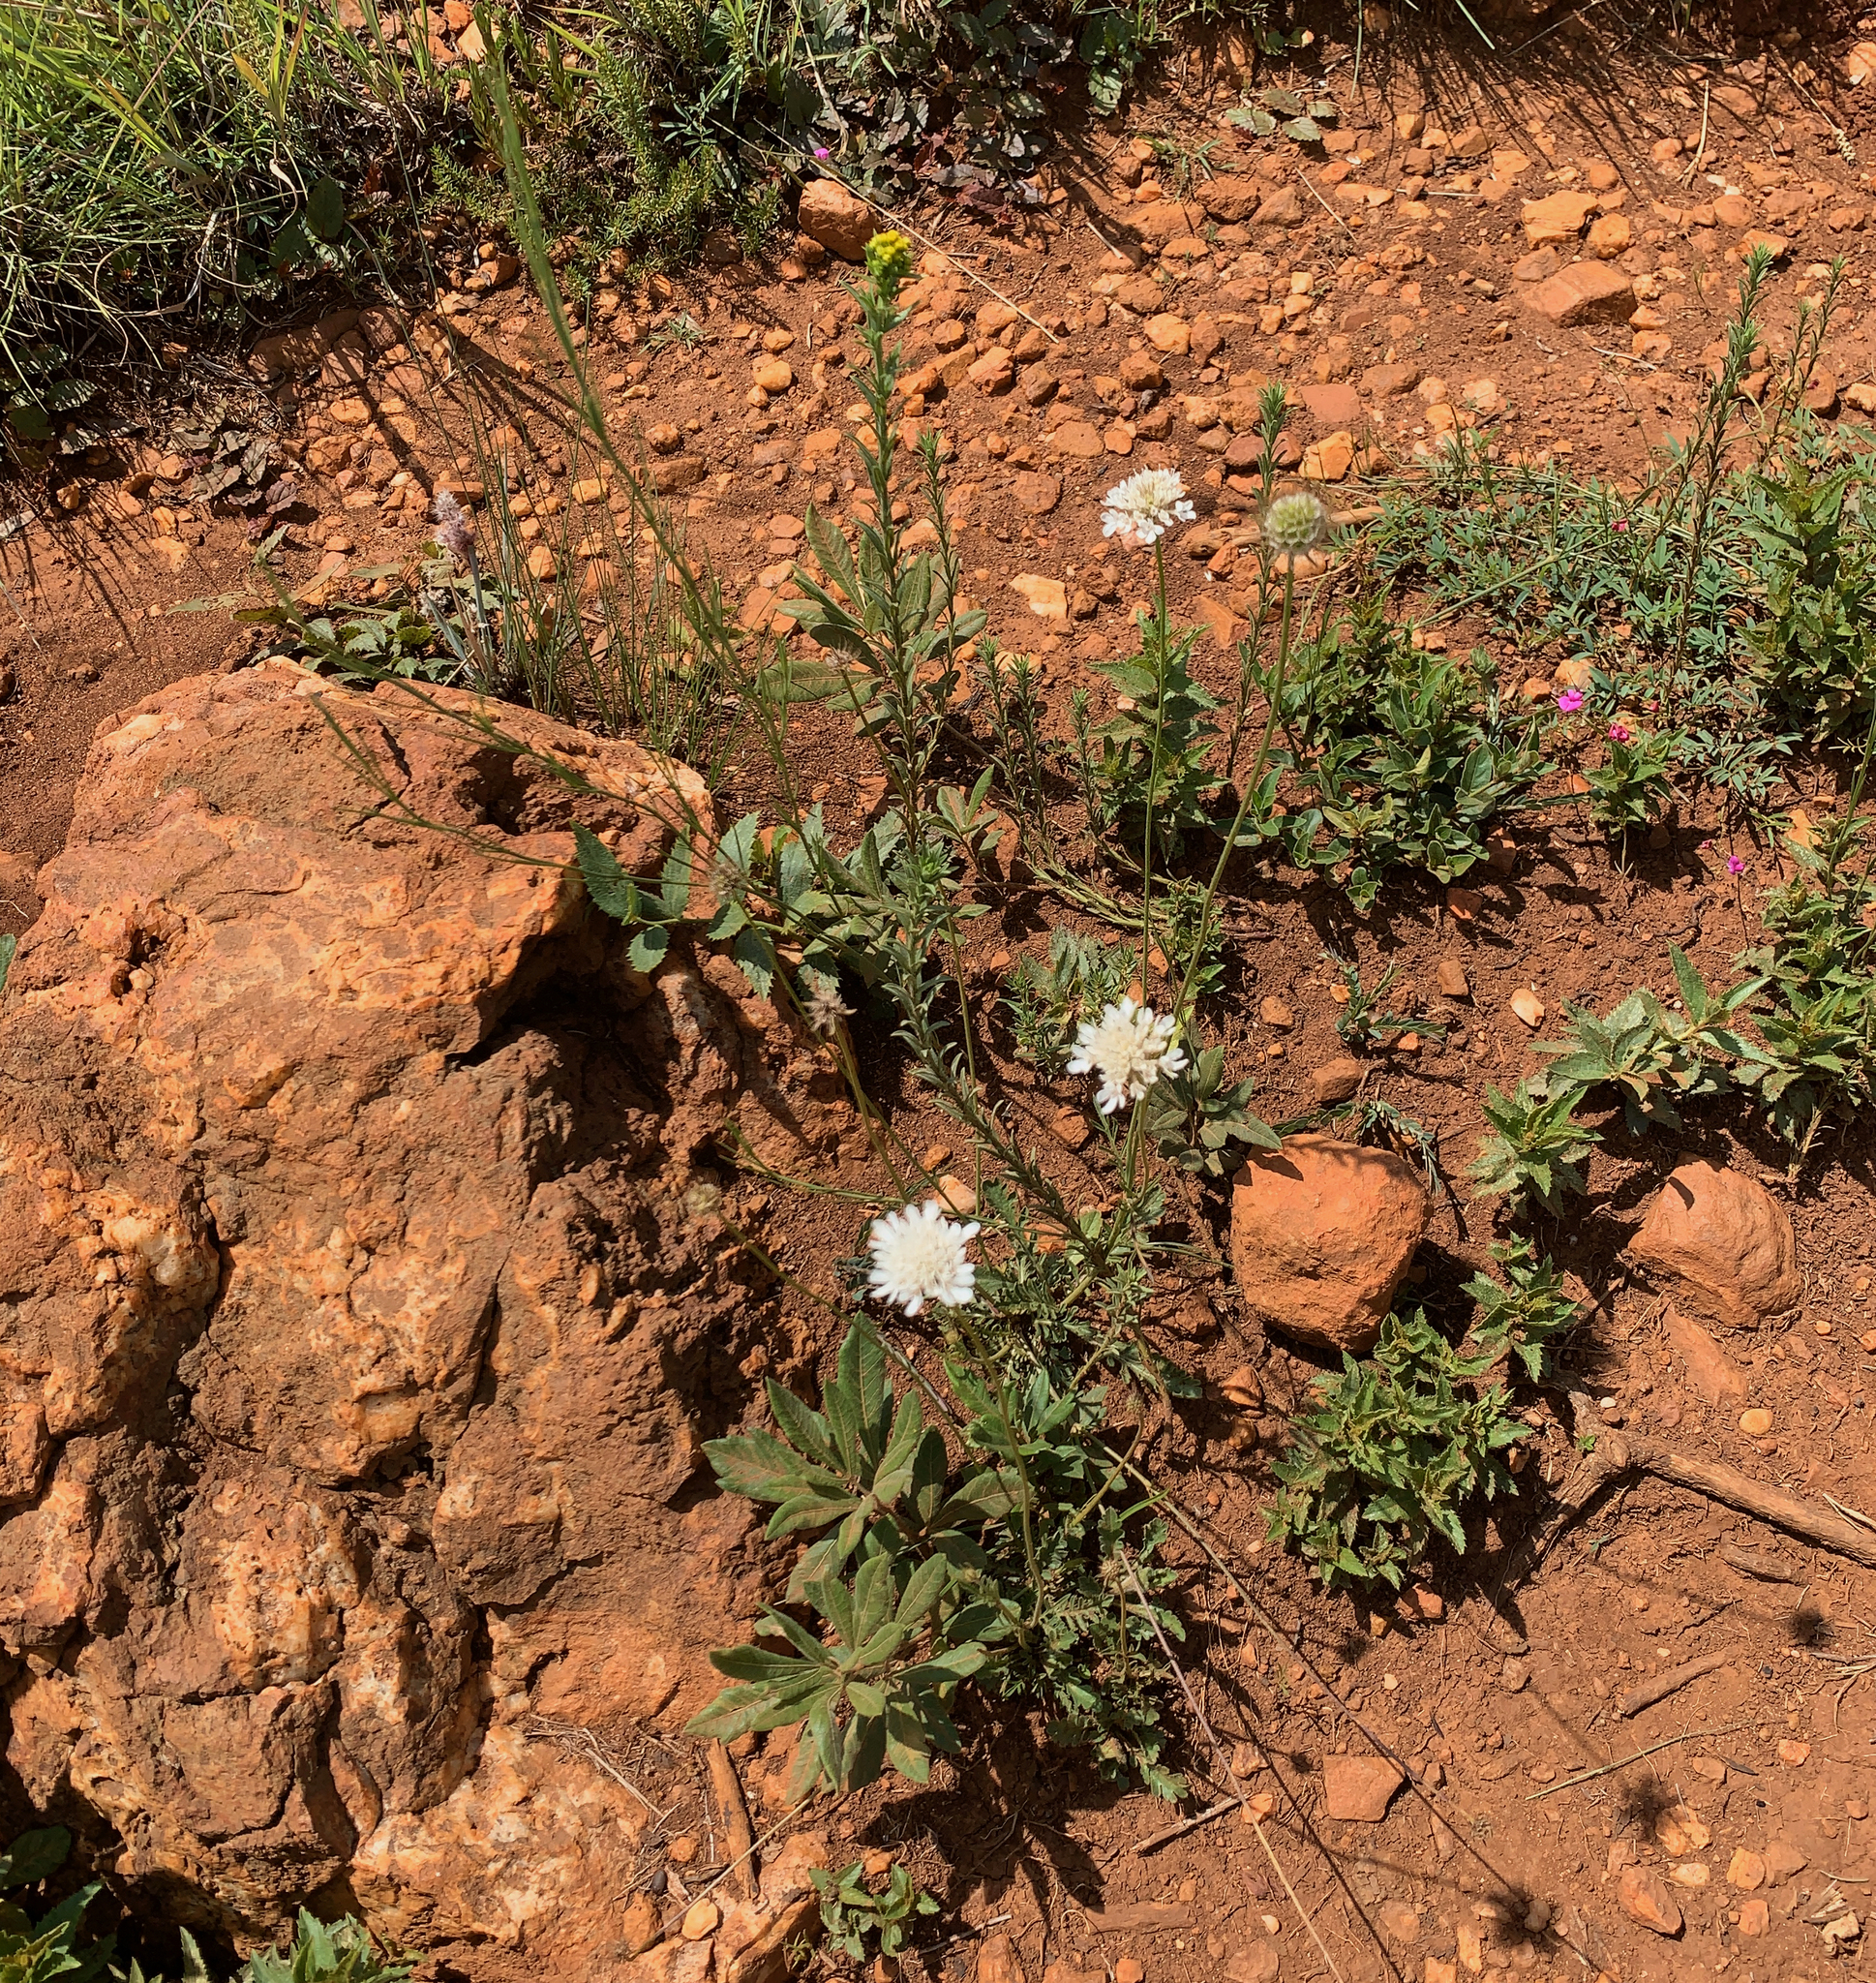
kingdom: Plantae
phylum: Tracheophyta
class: Magnoliopsida
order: Dipsacales
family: Caprifoliaceae
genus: Scabiosa
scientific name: Scabiosa columbaria
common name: Small scabious
